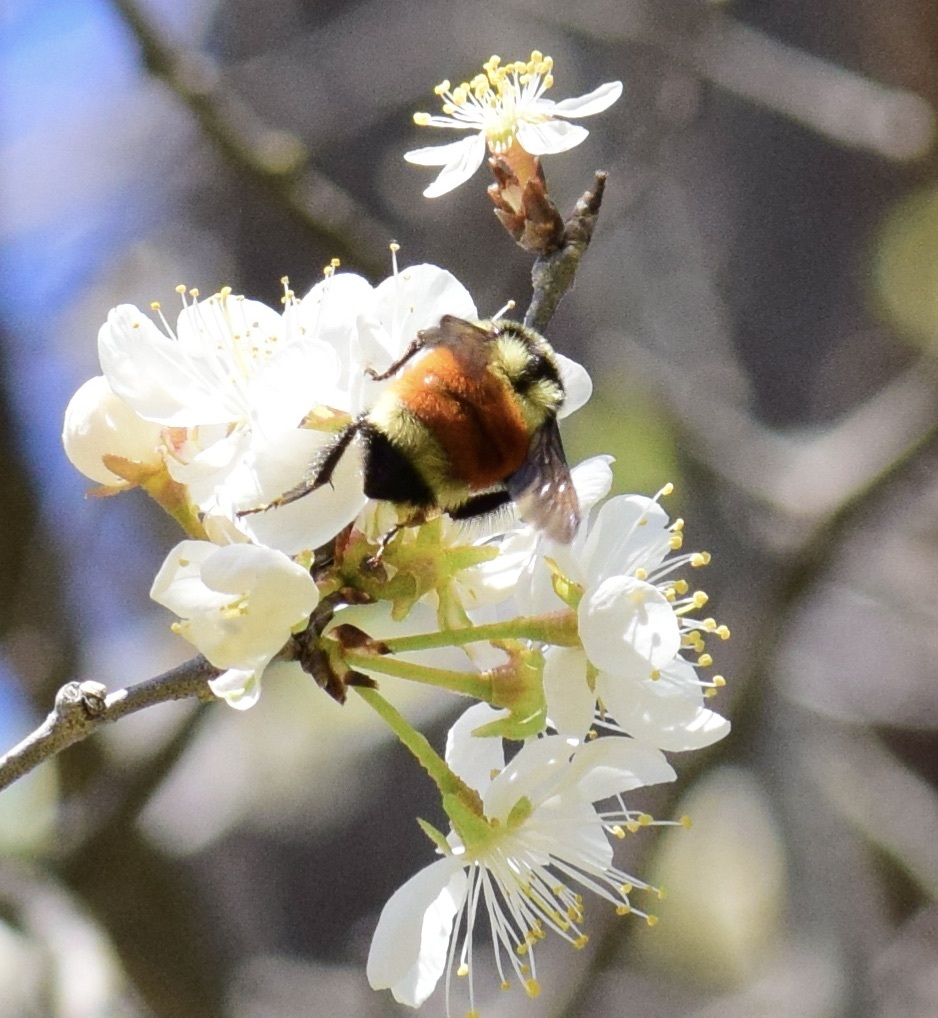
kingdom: Animalia
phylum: Arthropoda
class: Insecta
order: Hymenoptera
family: Apidae
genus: Bombus
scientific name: Bombus ternarius
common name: Tri-colored bumble bee
